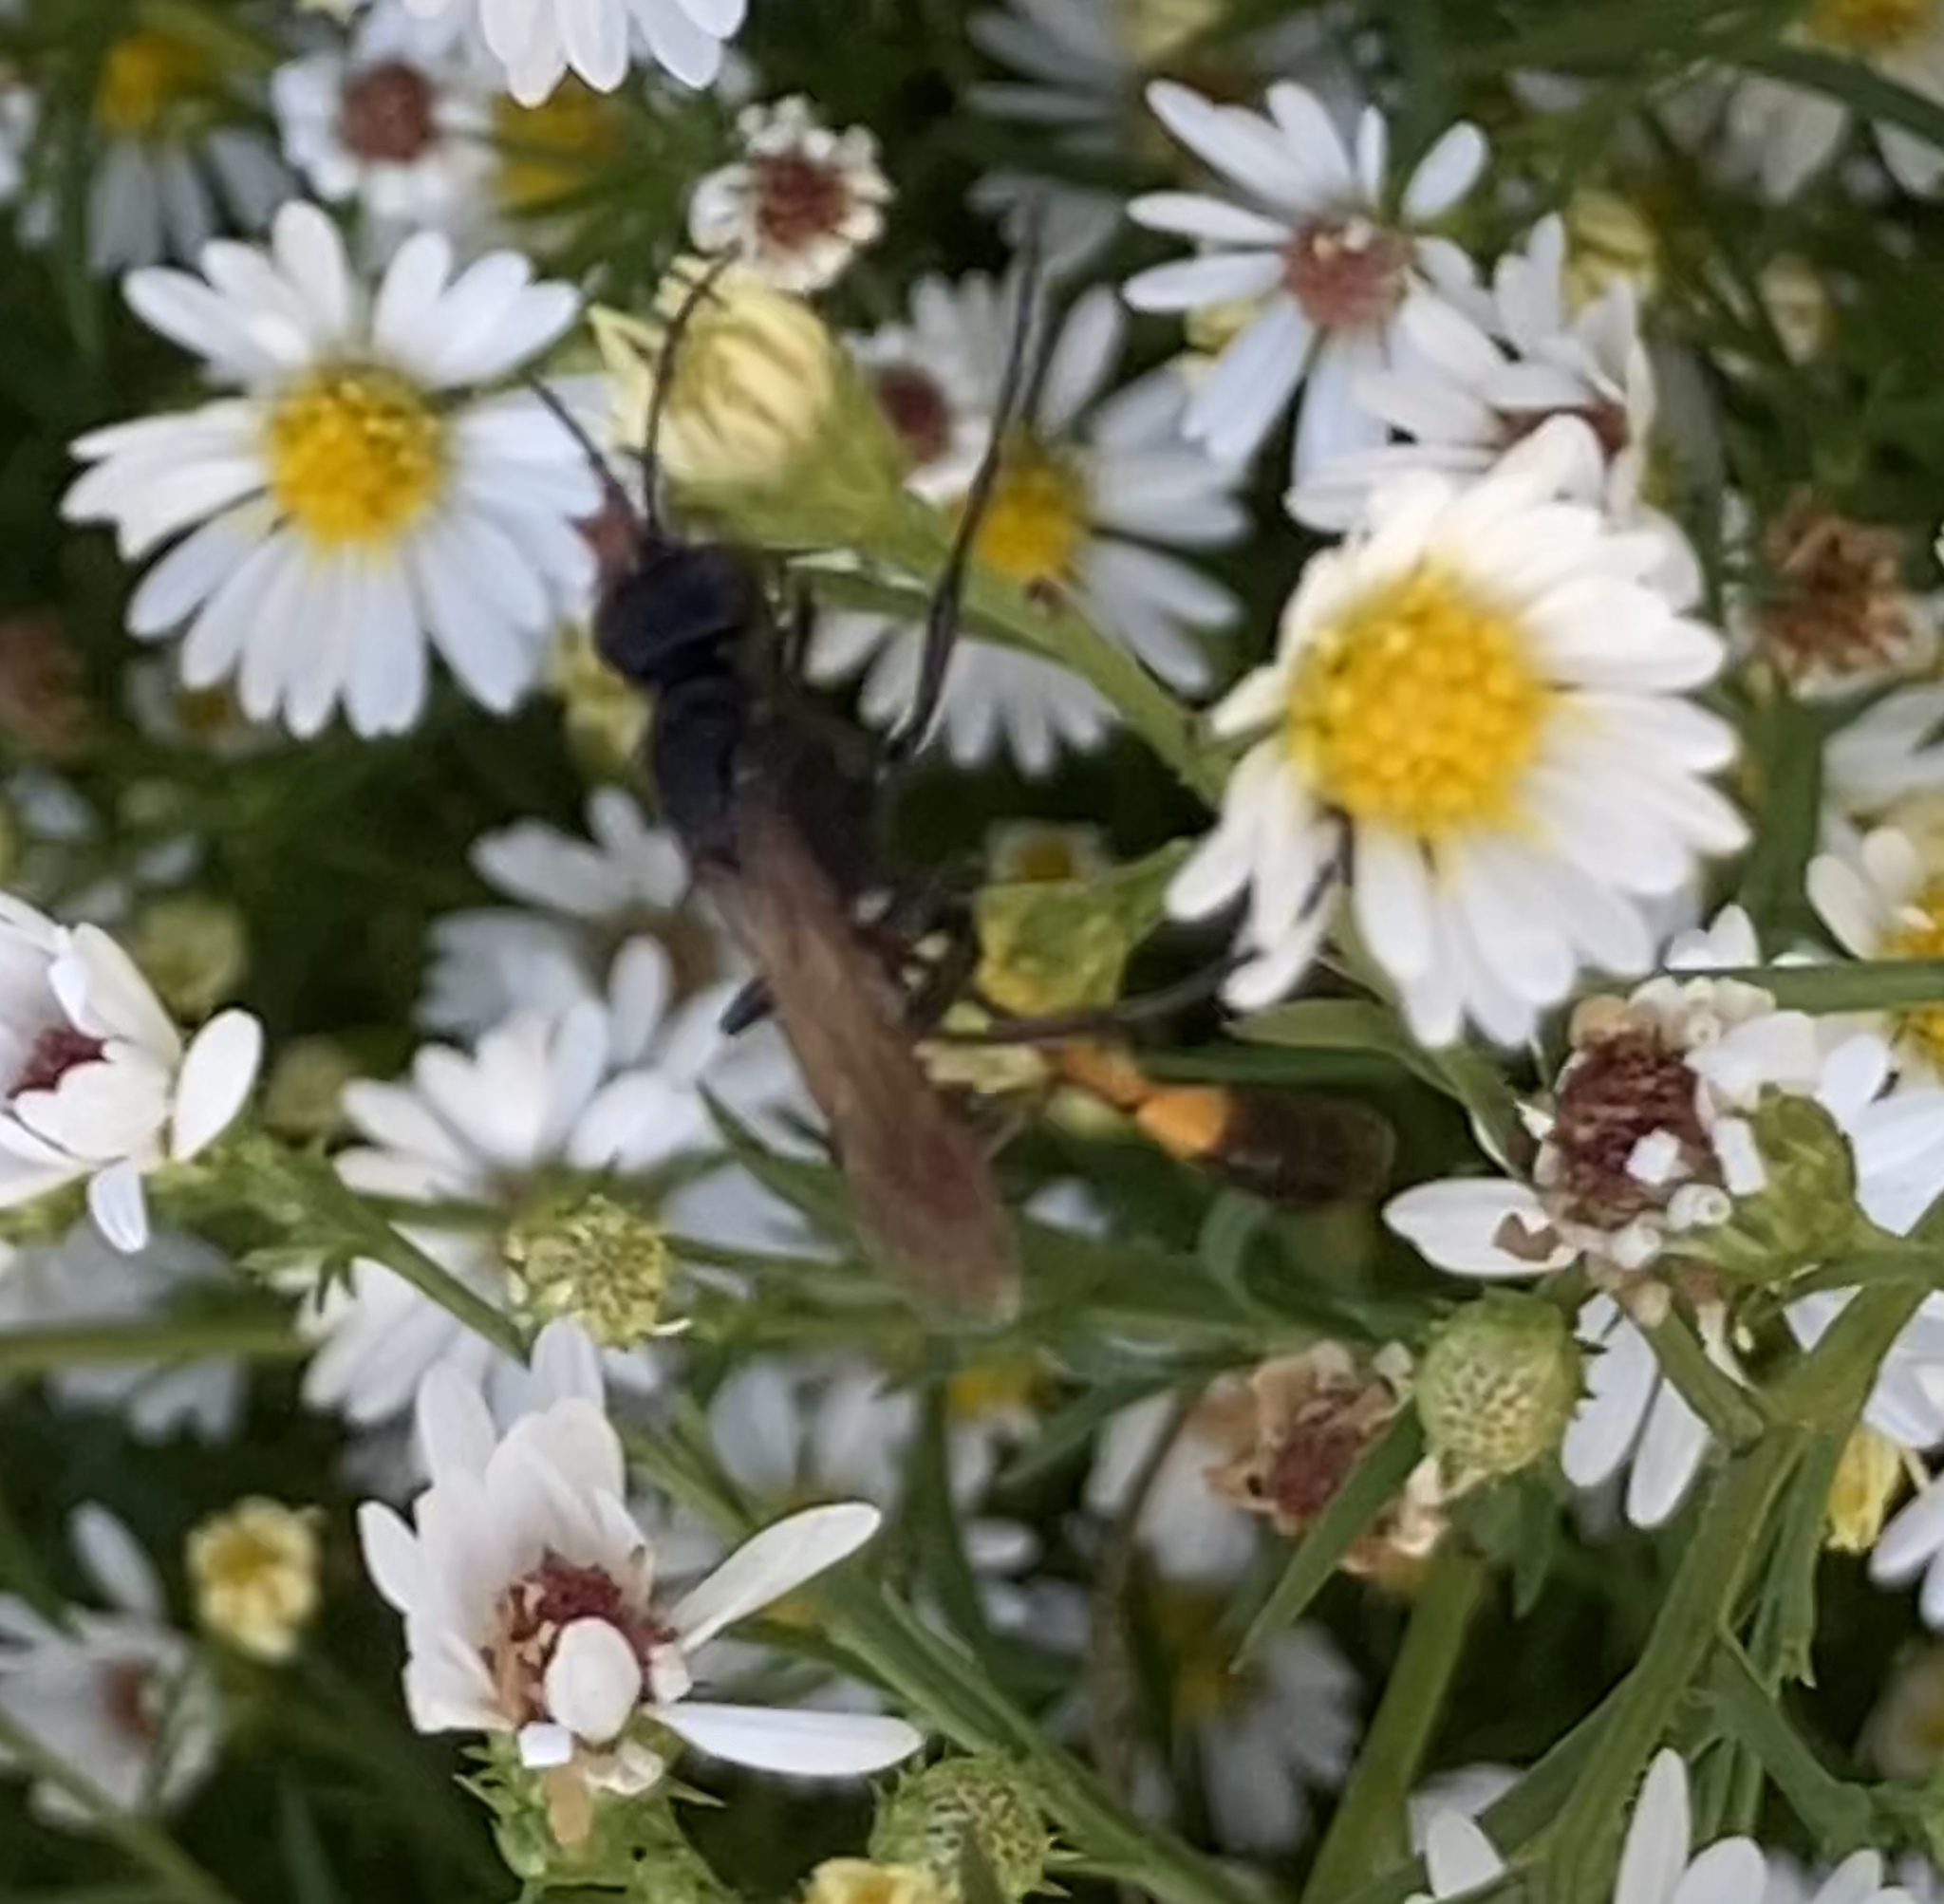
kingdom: Animalia
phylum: Arthropoda
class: Insecta
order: Hymenoptera
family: Sphecidae
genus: Ammophila
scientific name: Ammophila
